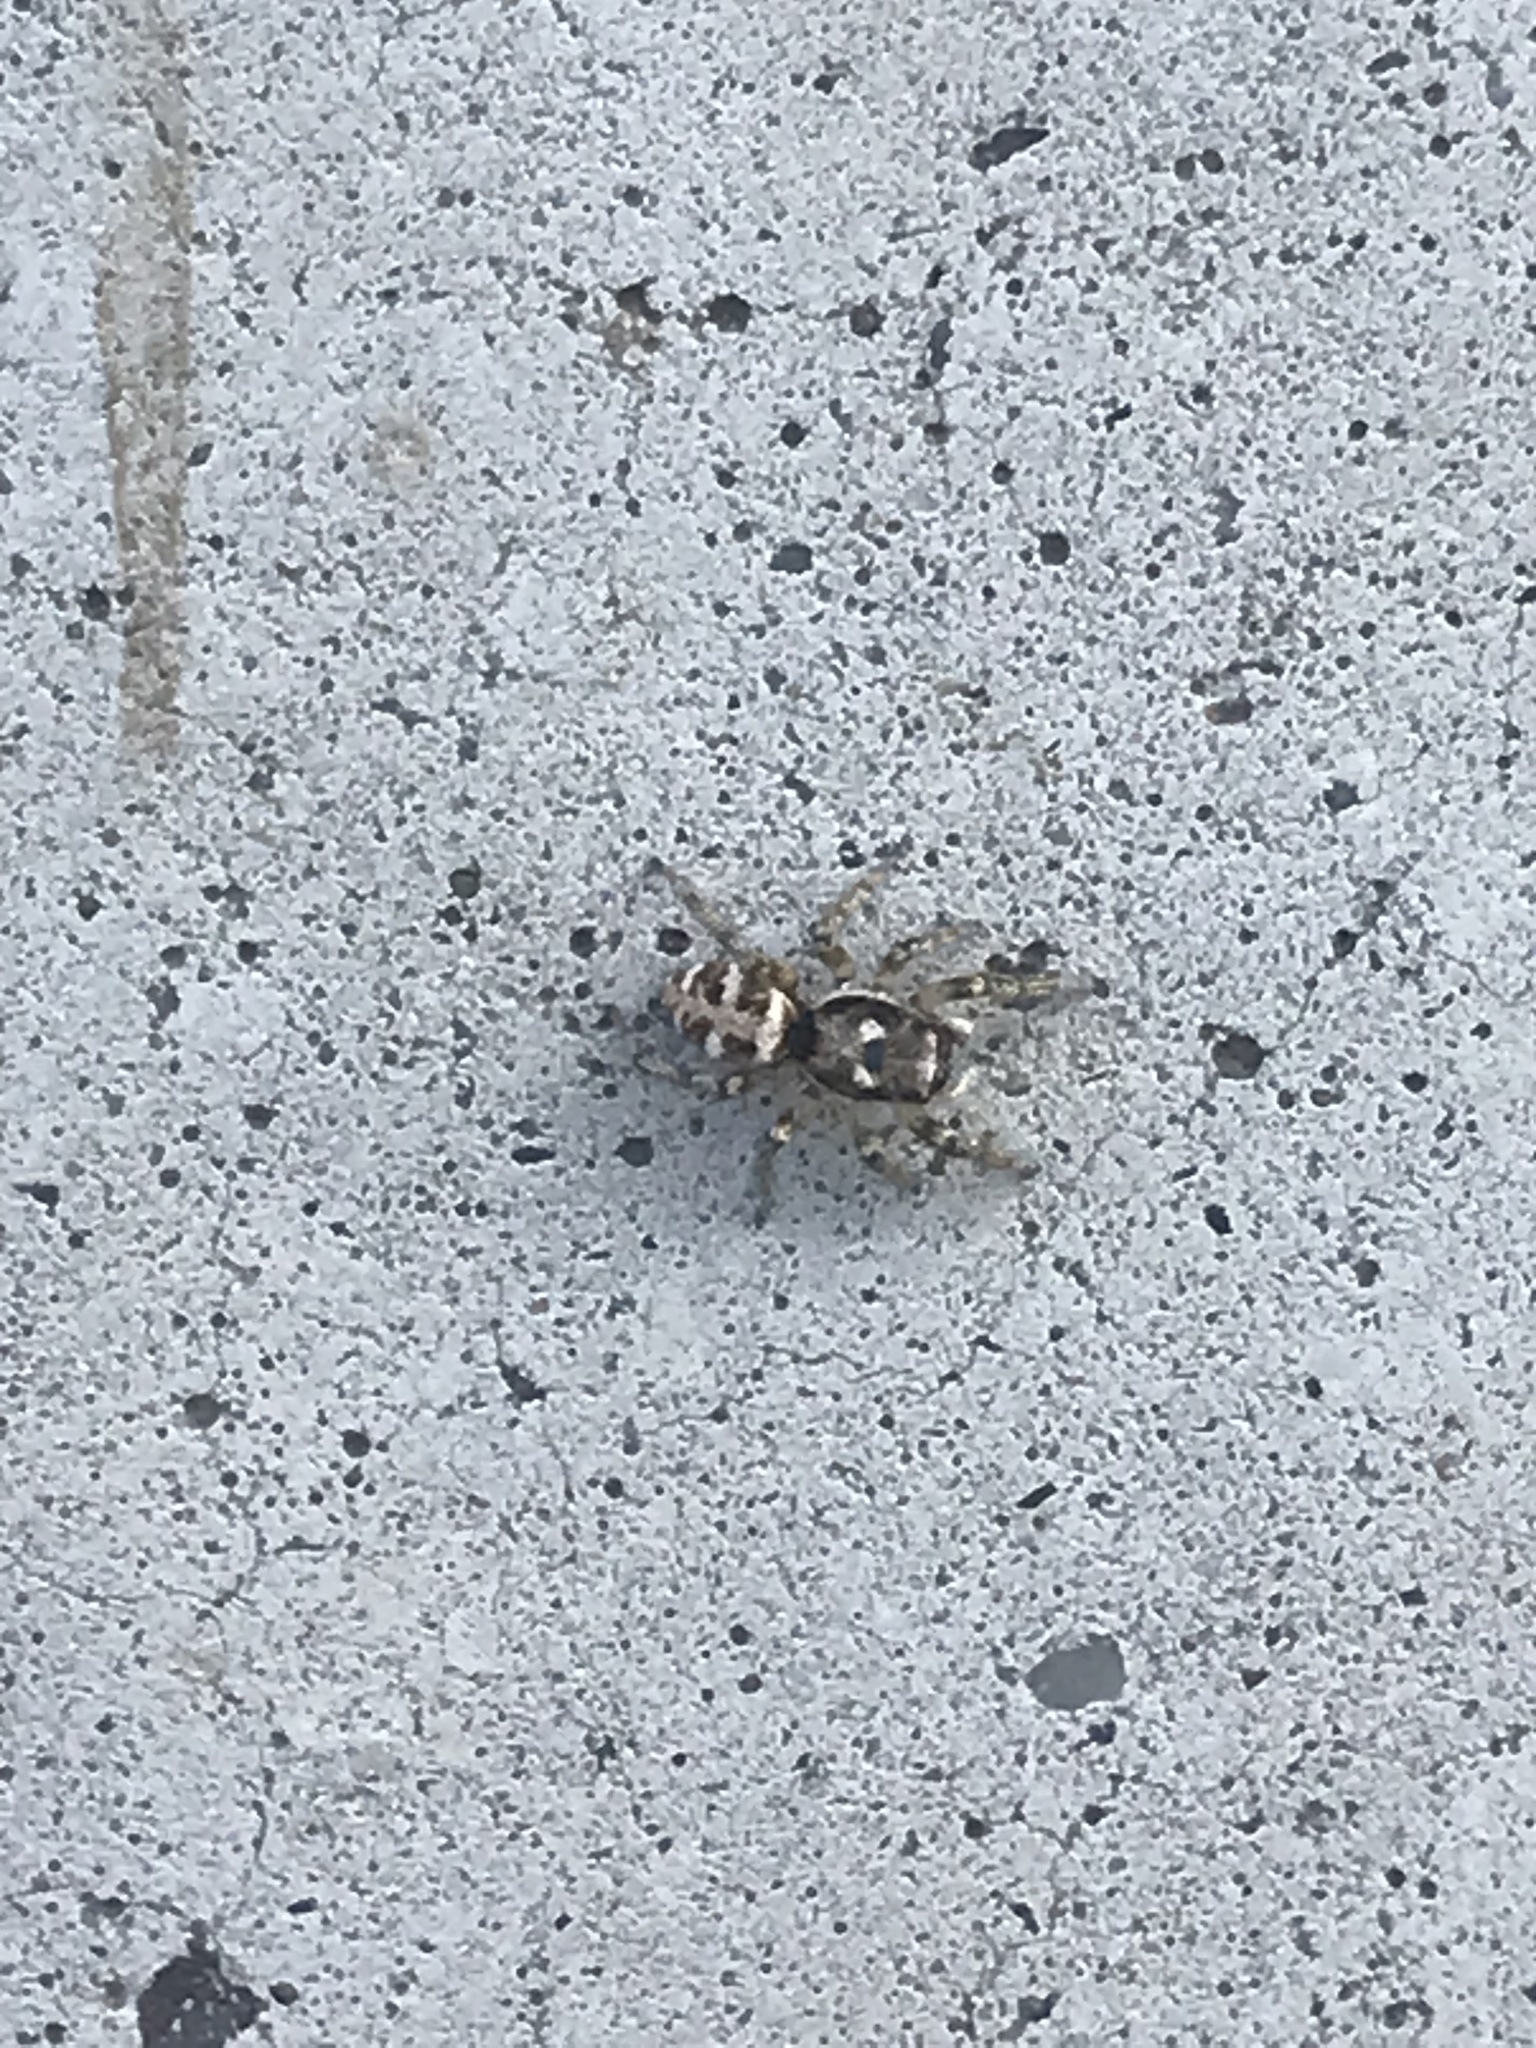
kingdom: Animalia
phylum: Arthropoda
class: Arachnida
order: Araneae
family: Salticidae
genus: Salticus
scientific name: Salticus scenicus
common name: Zebra jumper
